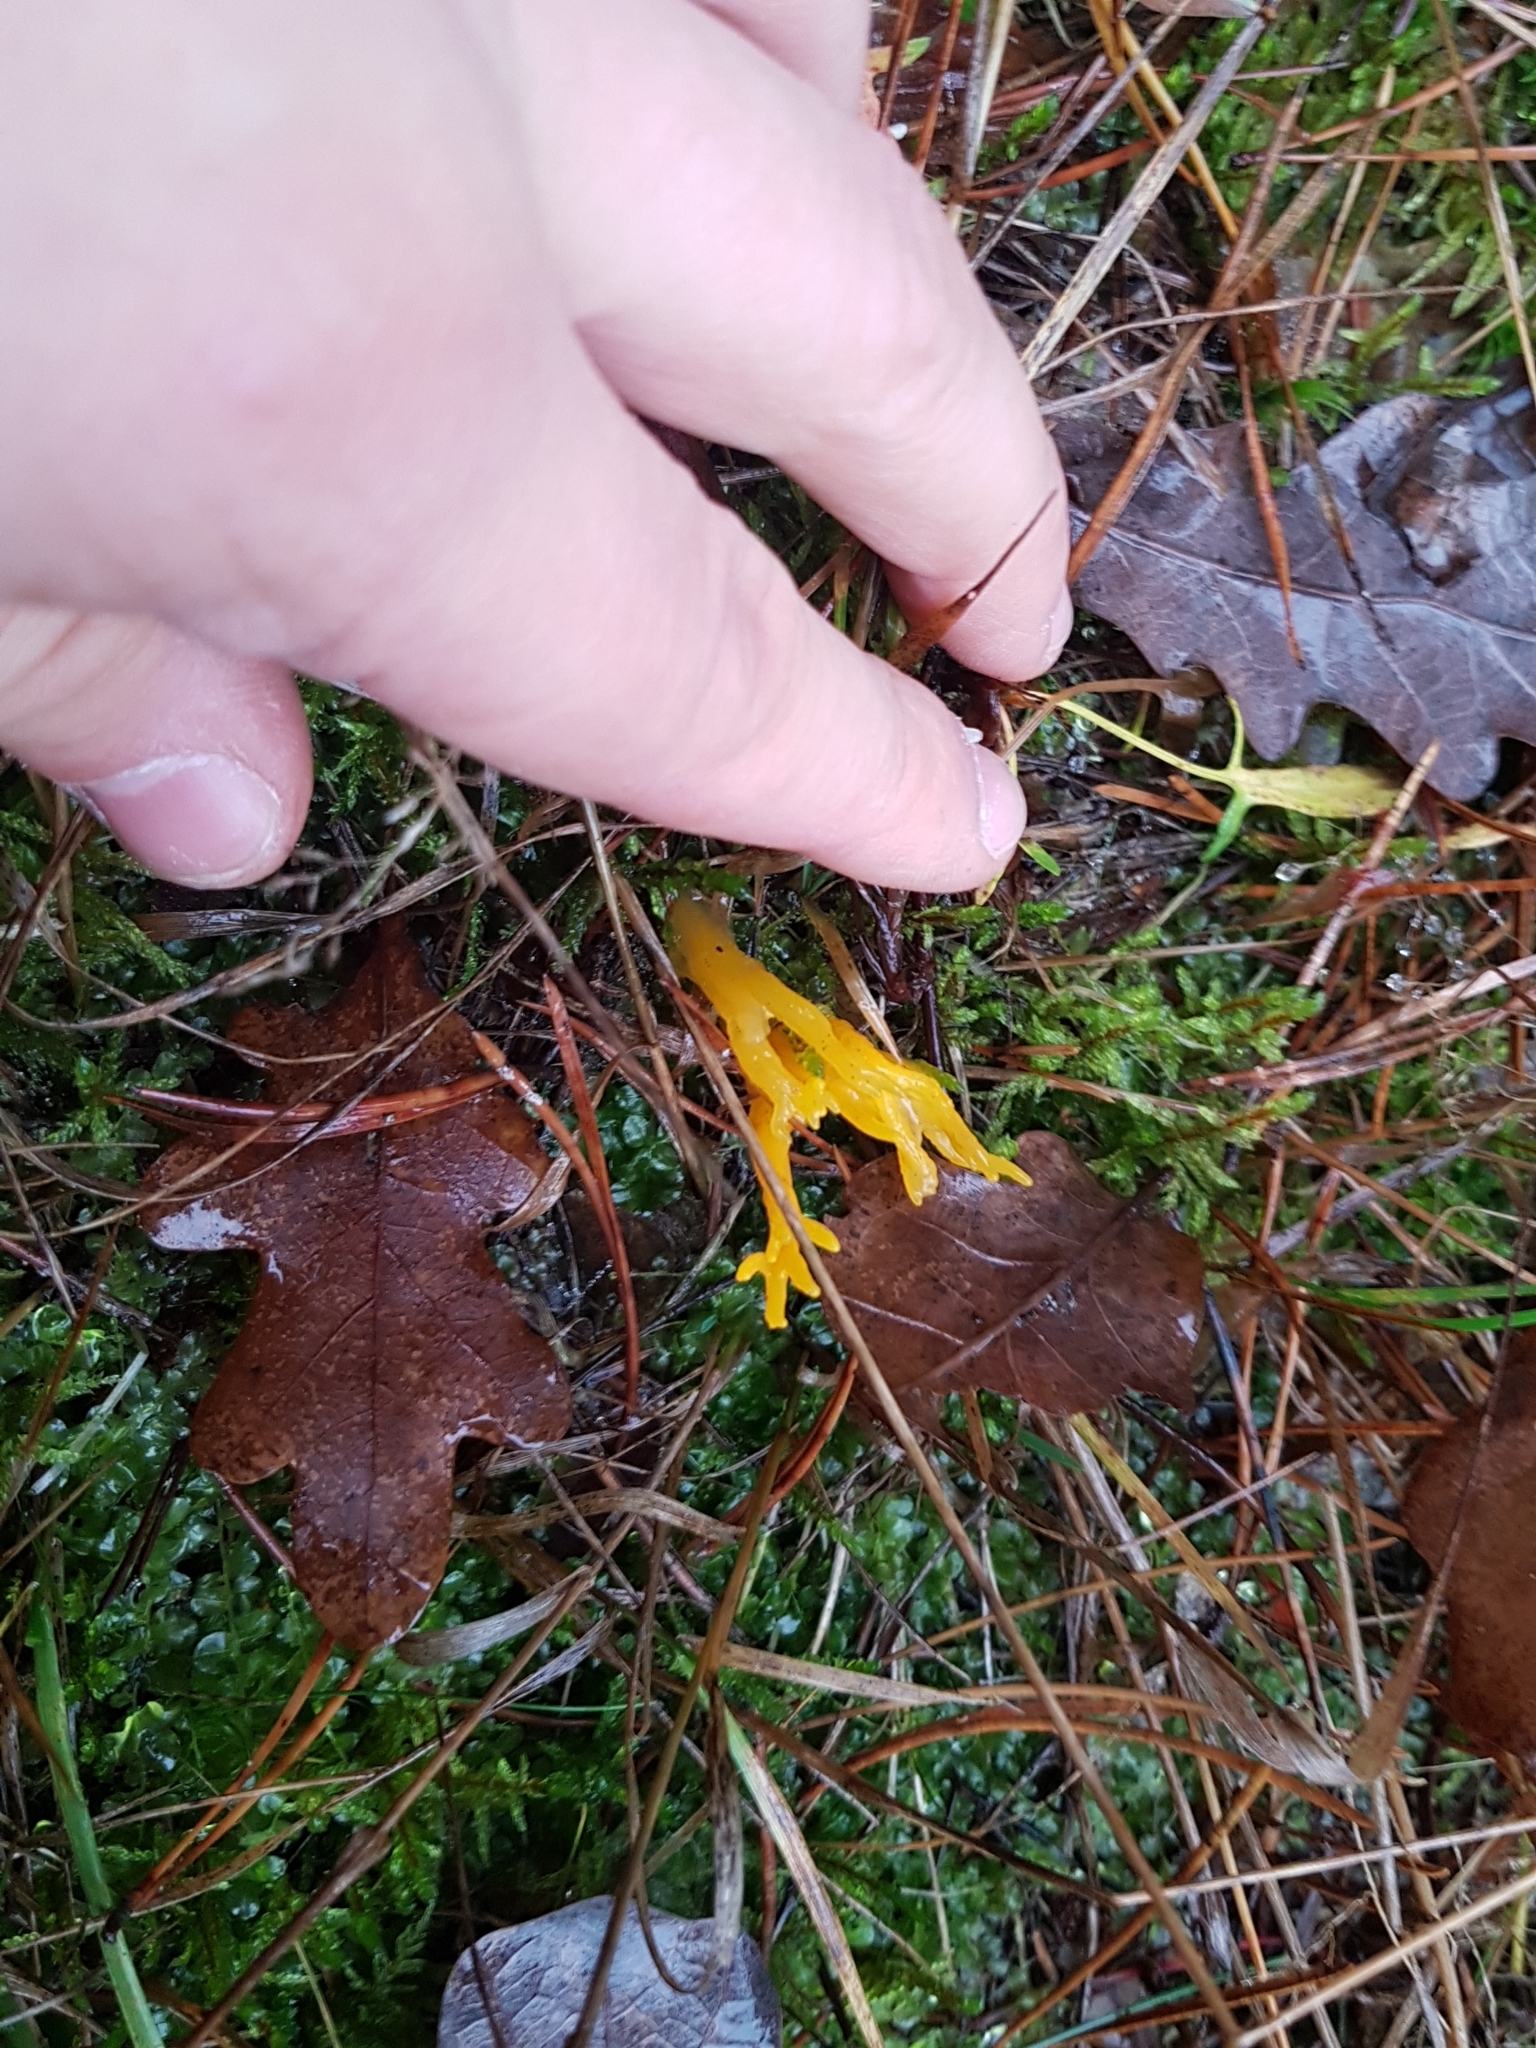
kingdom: Fungi
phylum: Basidiomycota
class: Dacrymycetes
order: Dacrymycetales
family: Dacrymycetaceae
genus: Calocera
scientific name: Calocera viscosa
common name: Yellow stagshorn
